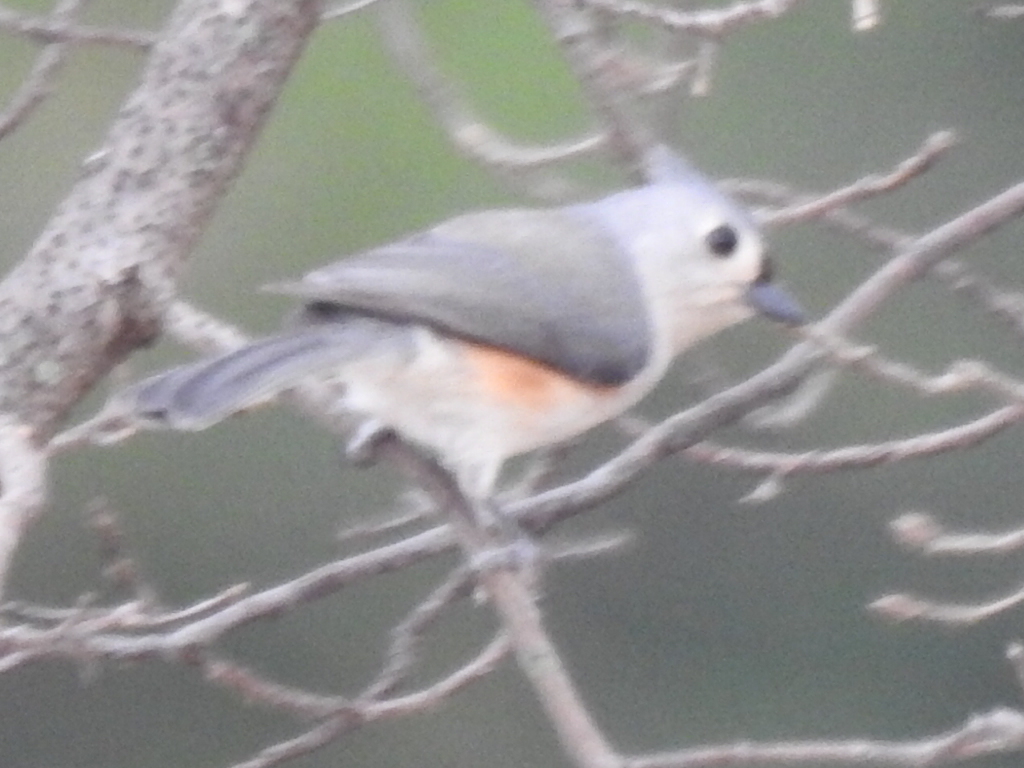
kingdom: Animalia
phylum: Chordata
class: Aves
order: Passeriformes
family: Paridae
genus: Baeolophus
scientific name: Baeolophus bicolor
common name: Tufted titmouse
